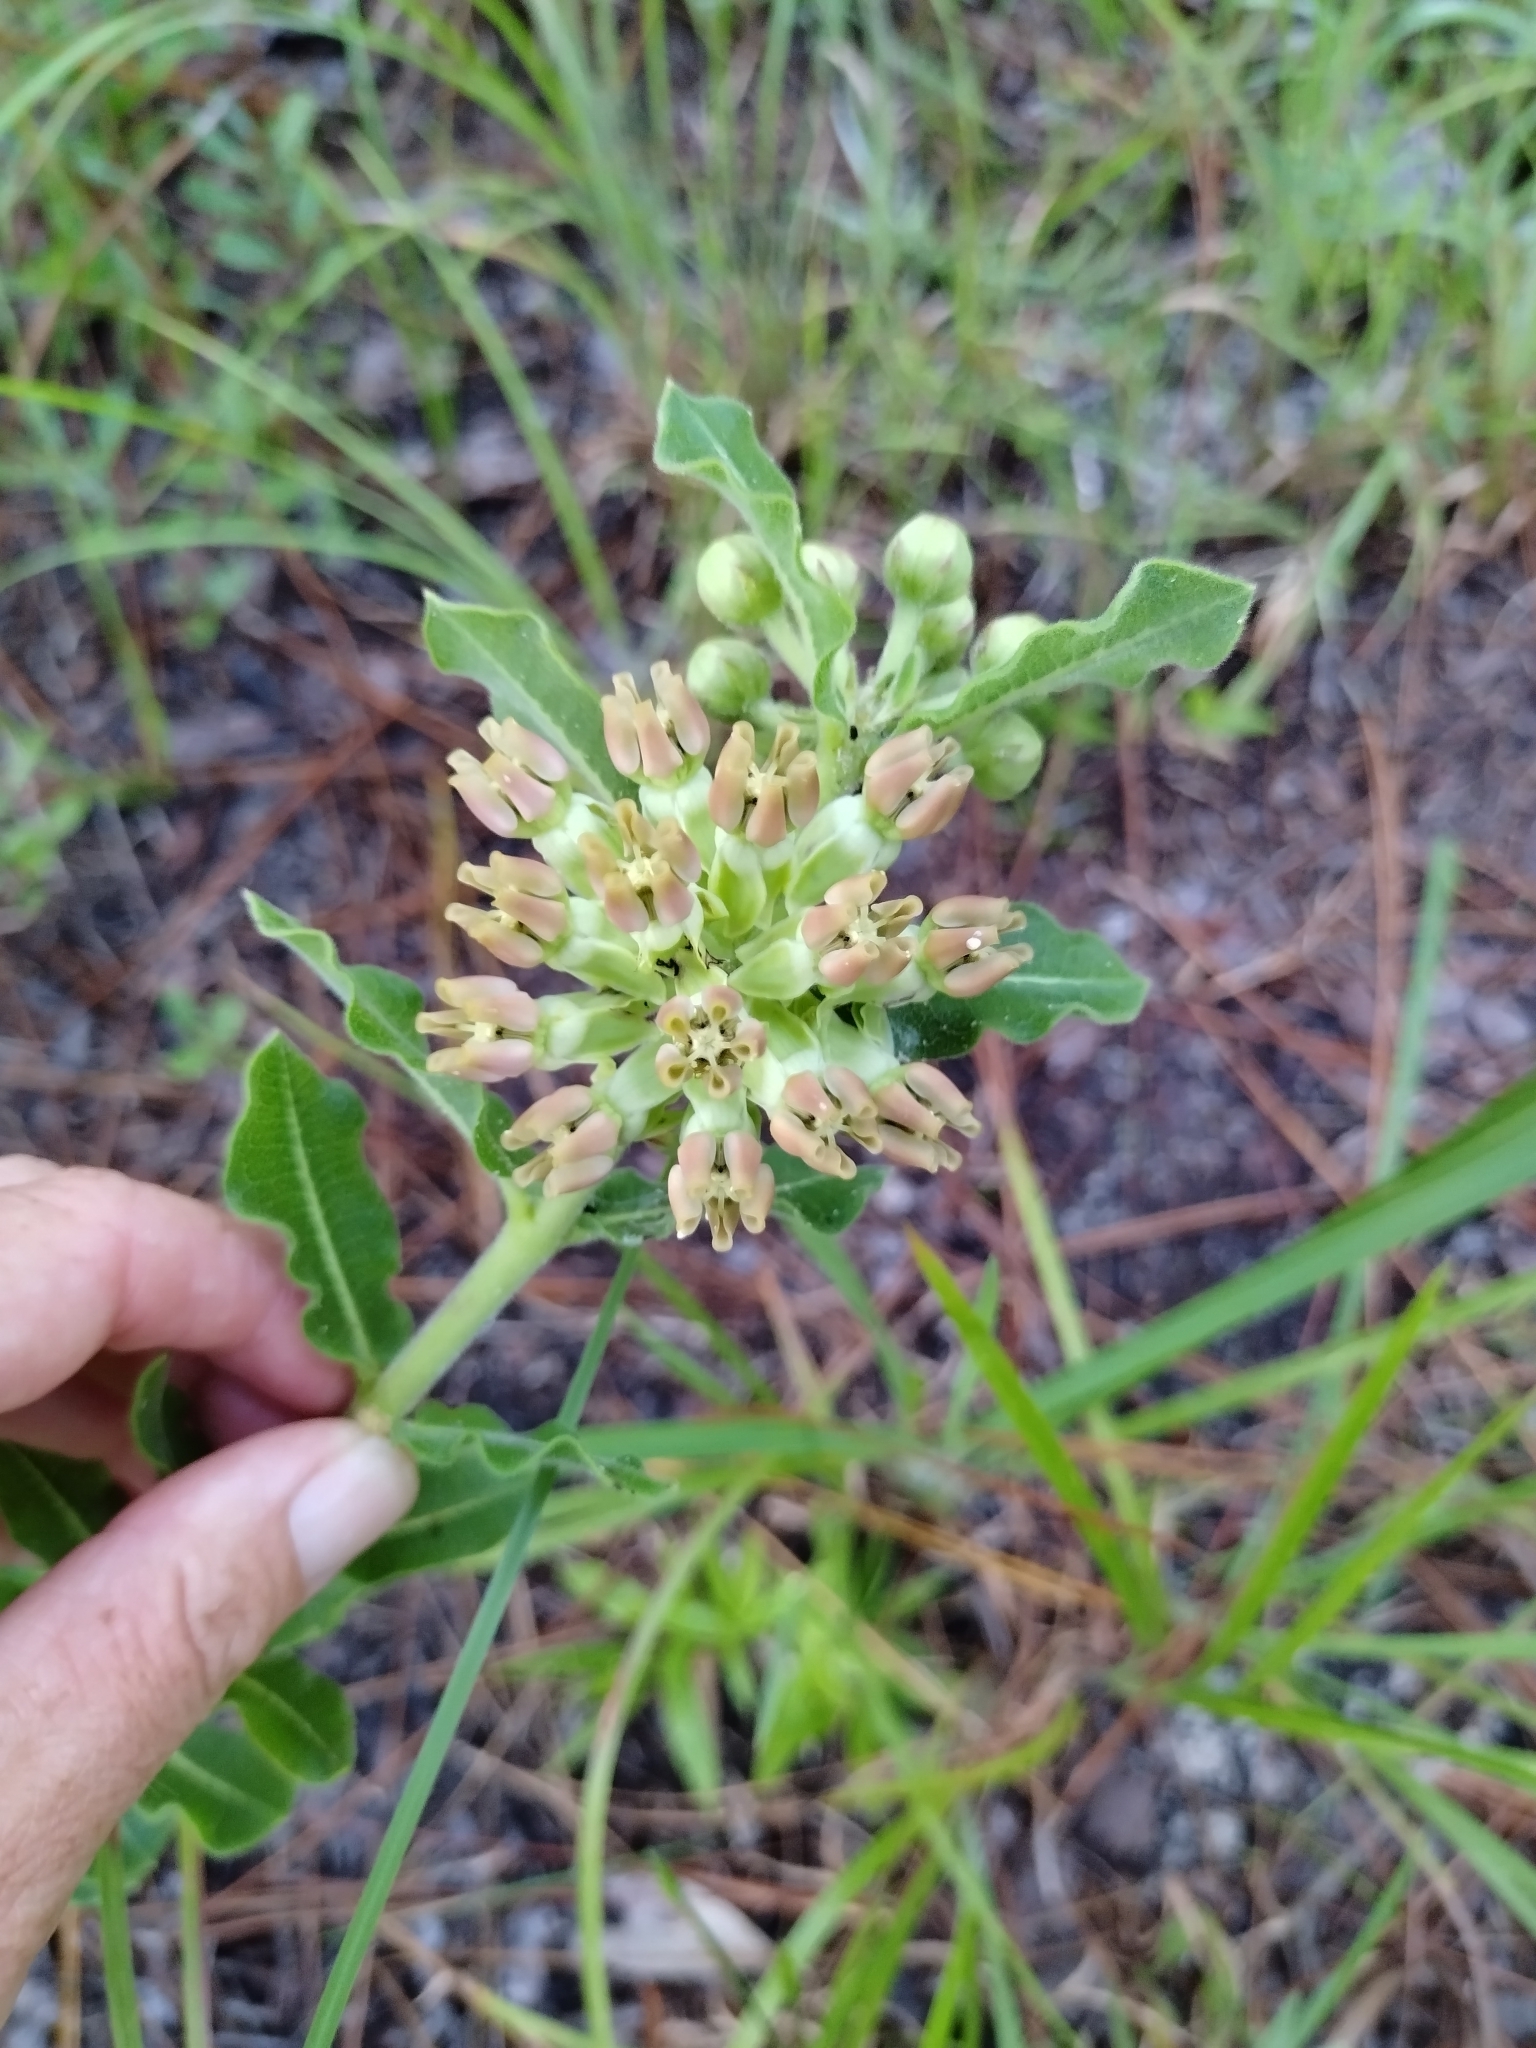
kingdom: Plantae
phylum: Tracheophyta
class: Magnoliopsida
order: Gentianales
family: Apocynaceae
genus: Asclepias
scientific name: Asclepias obovata
